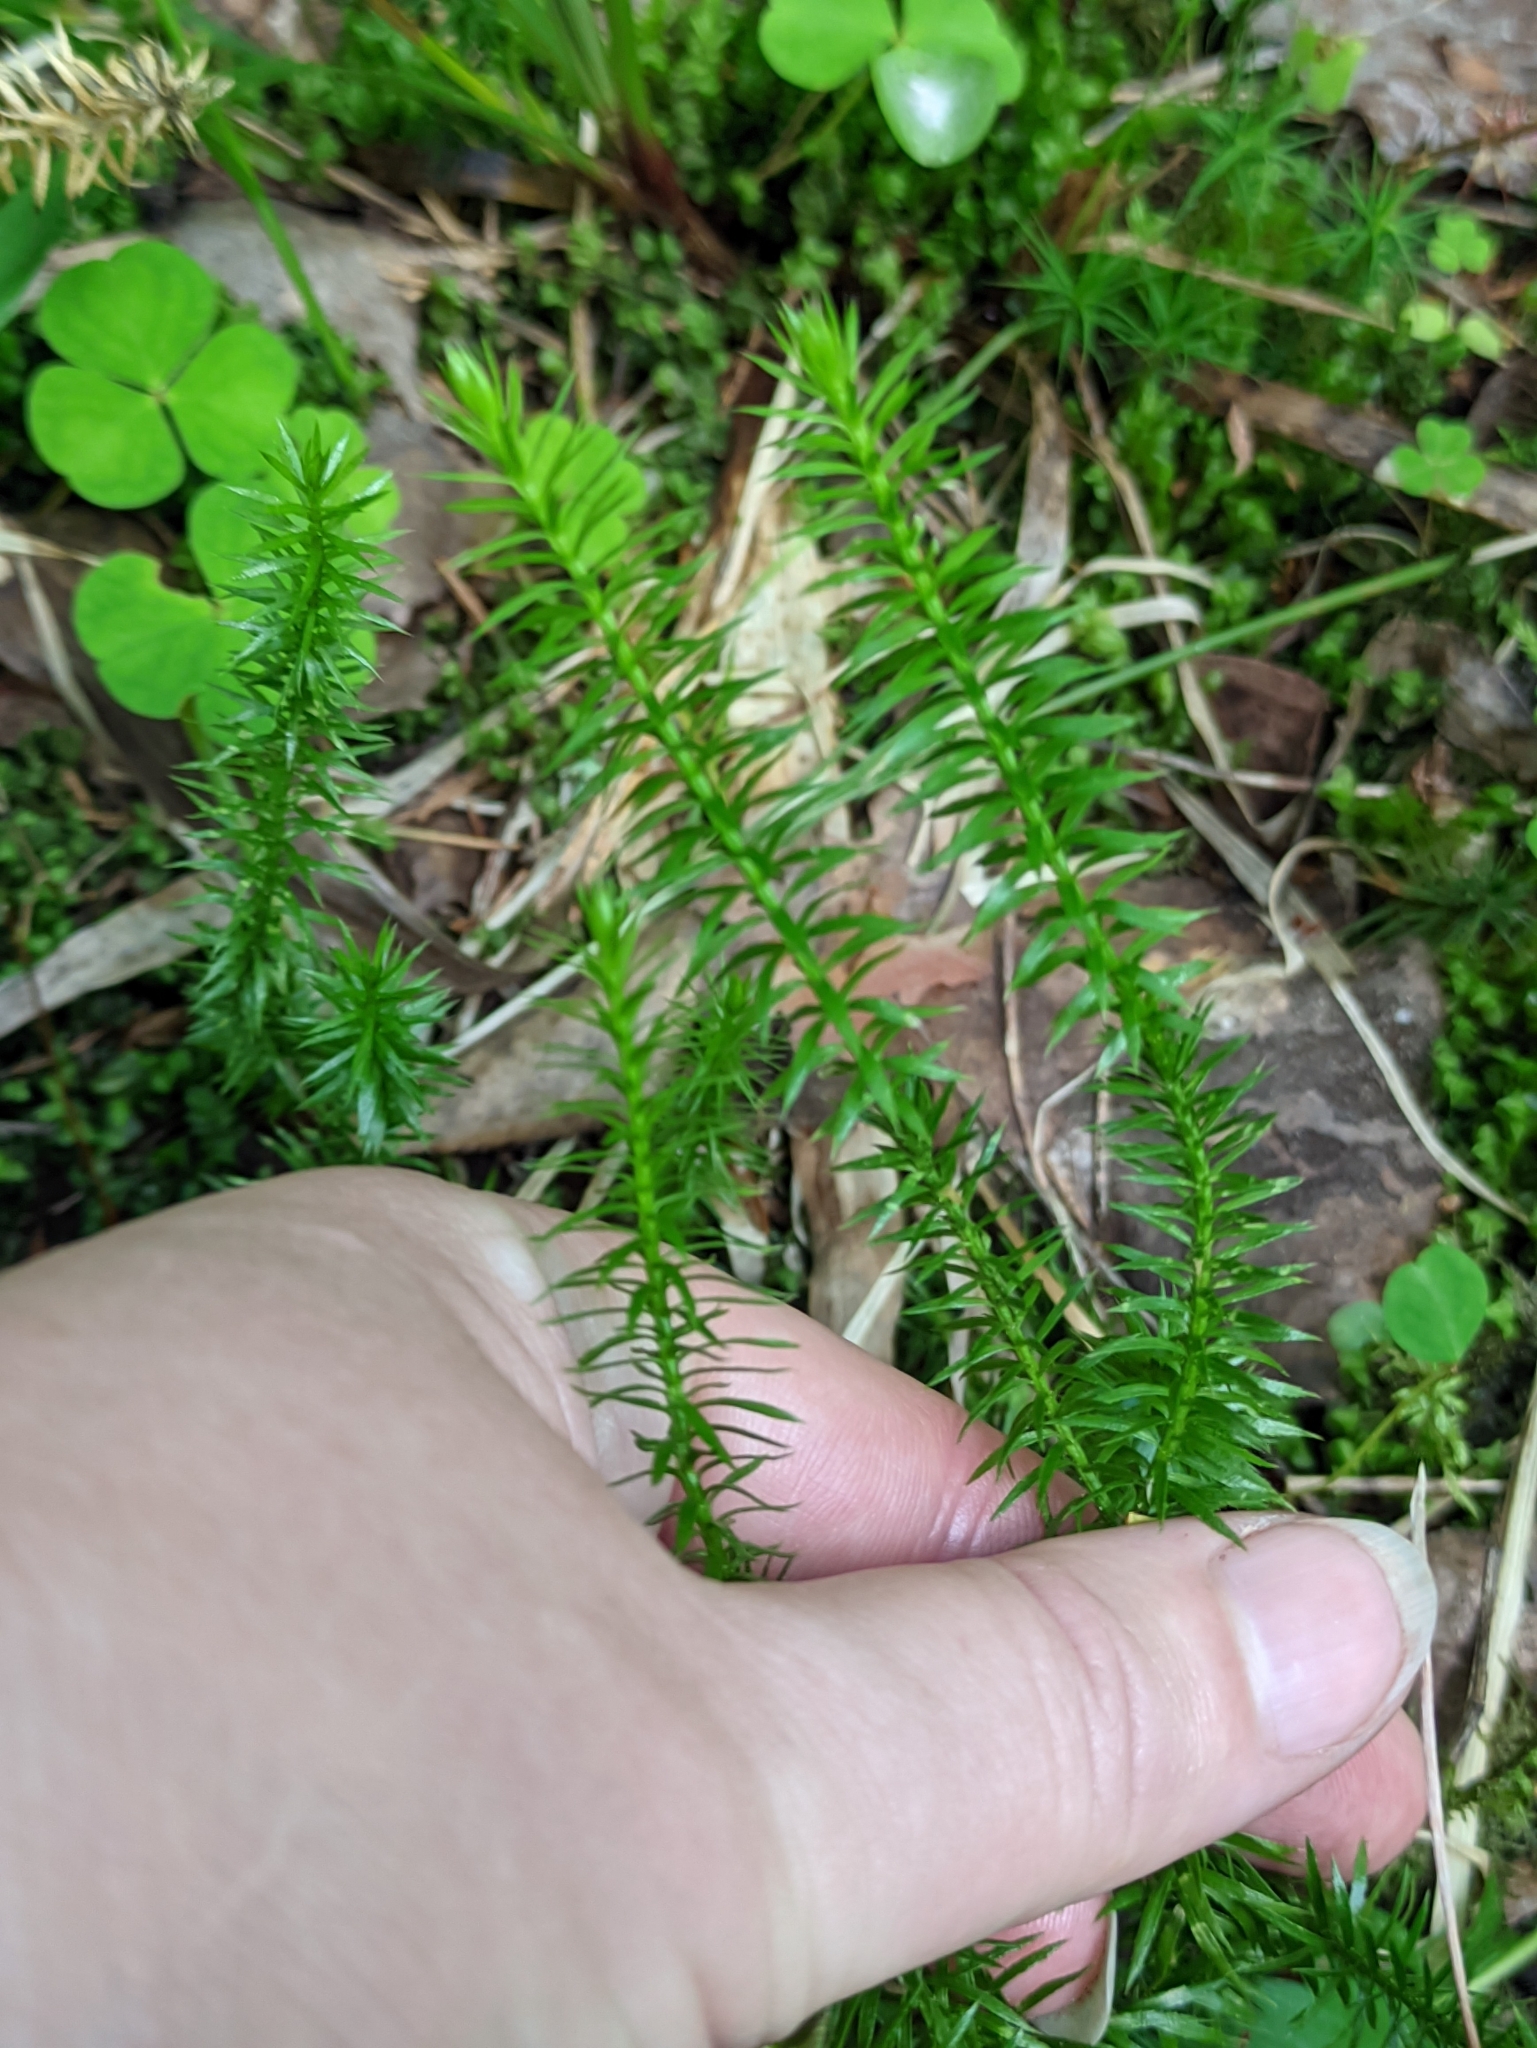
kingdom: Plantae
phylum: Tracheophyta
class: Lycopodiopsida
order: Lycopodiales
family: Lycopodiaceae
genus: Spinulum
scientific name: Spinulum annotinum
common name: Interrupted club-moss
